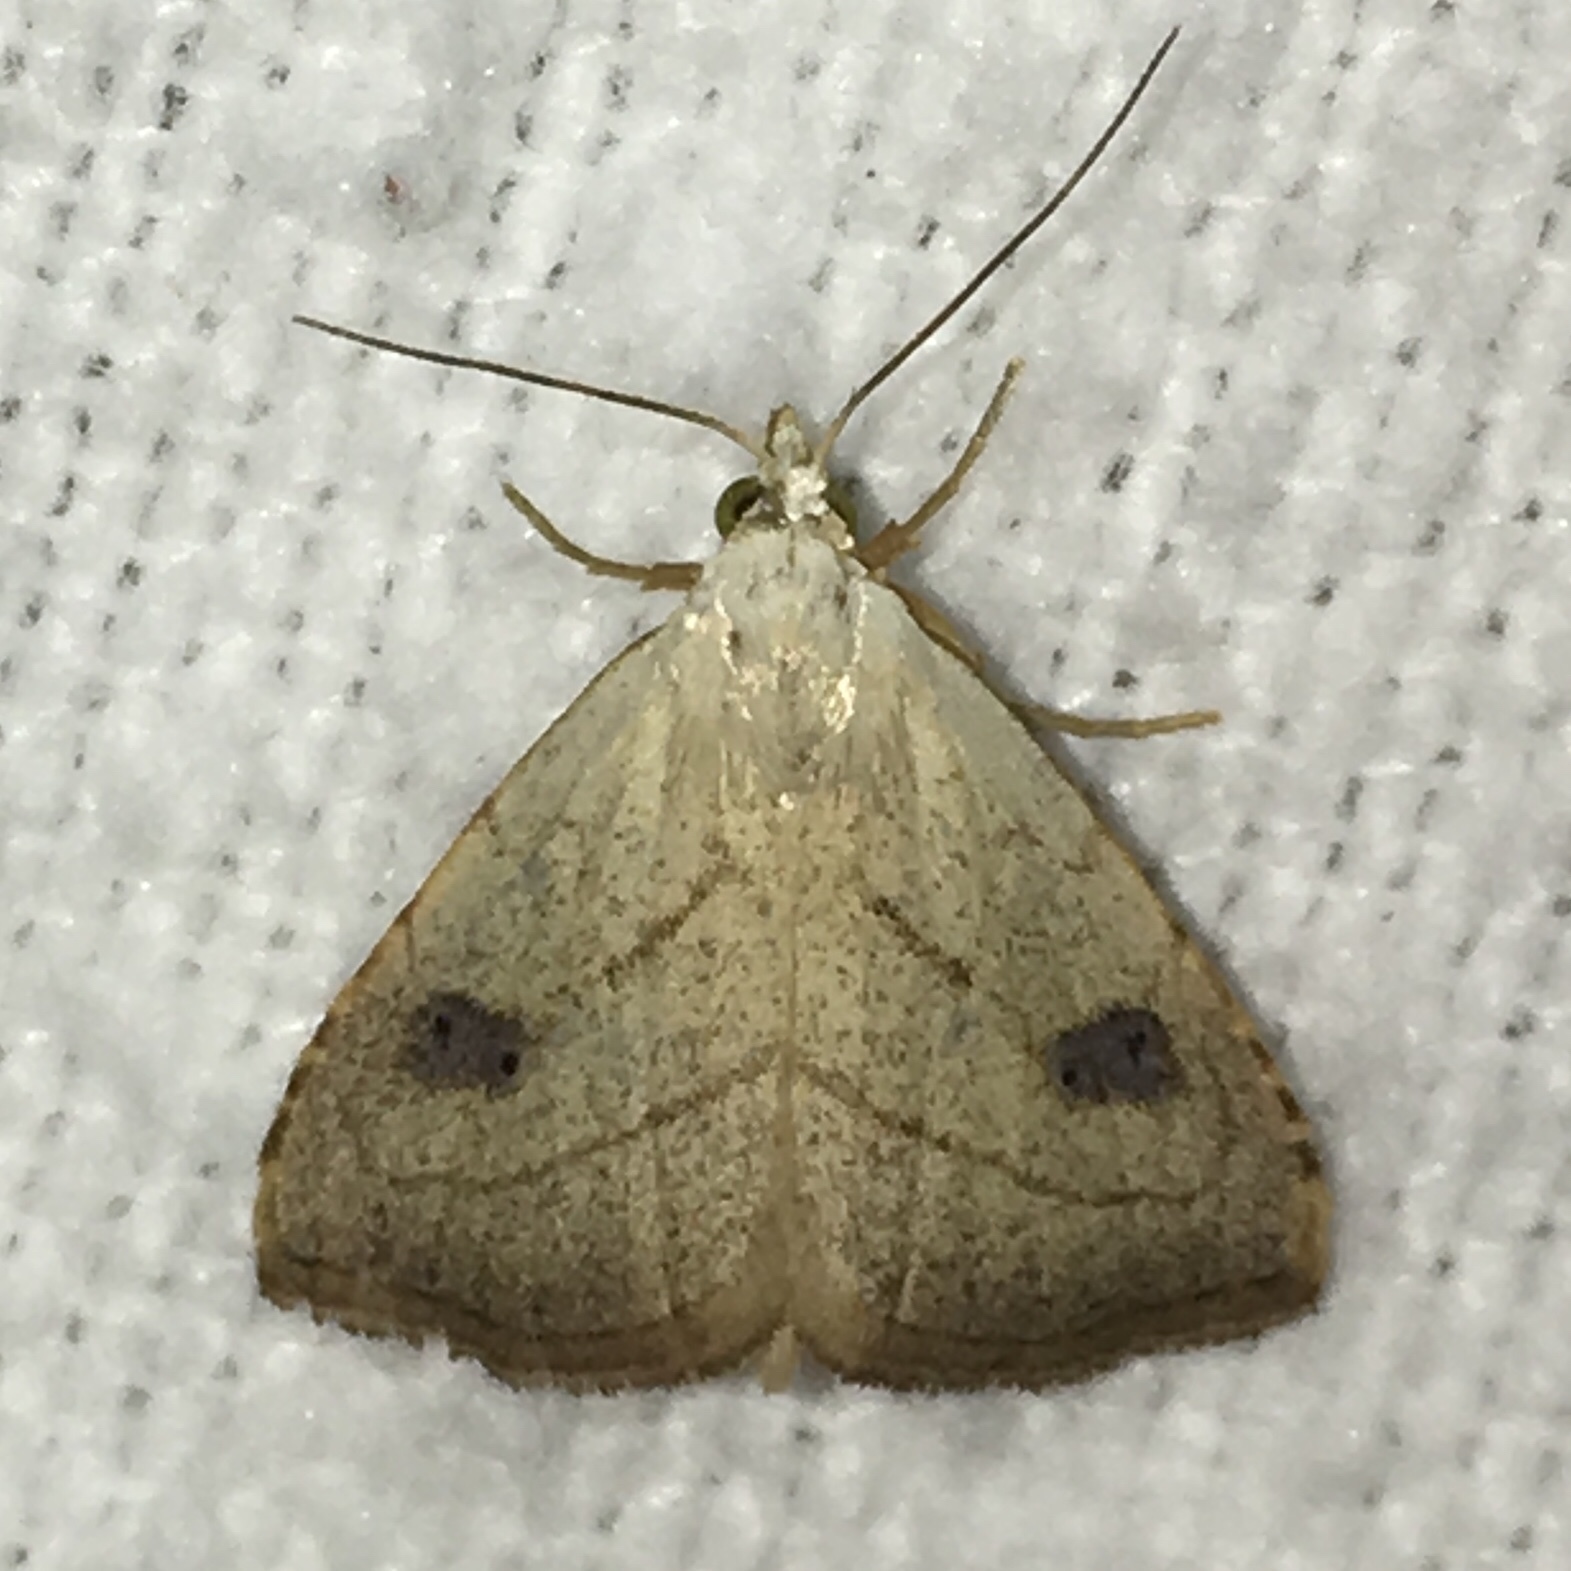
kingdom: Animalia
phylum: Arthropoda
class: Insecta
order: Lepidoptera
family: Erebidae
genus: Rivula
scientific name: Rivula propinqualis
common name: Spotted grass moth
